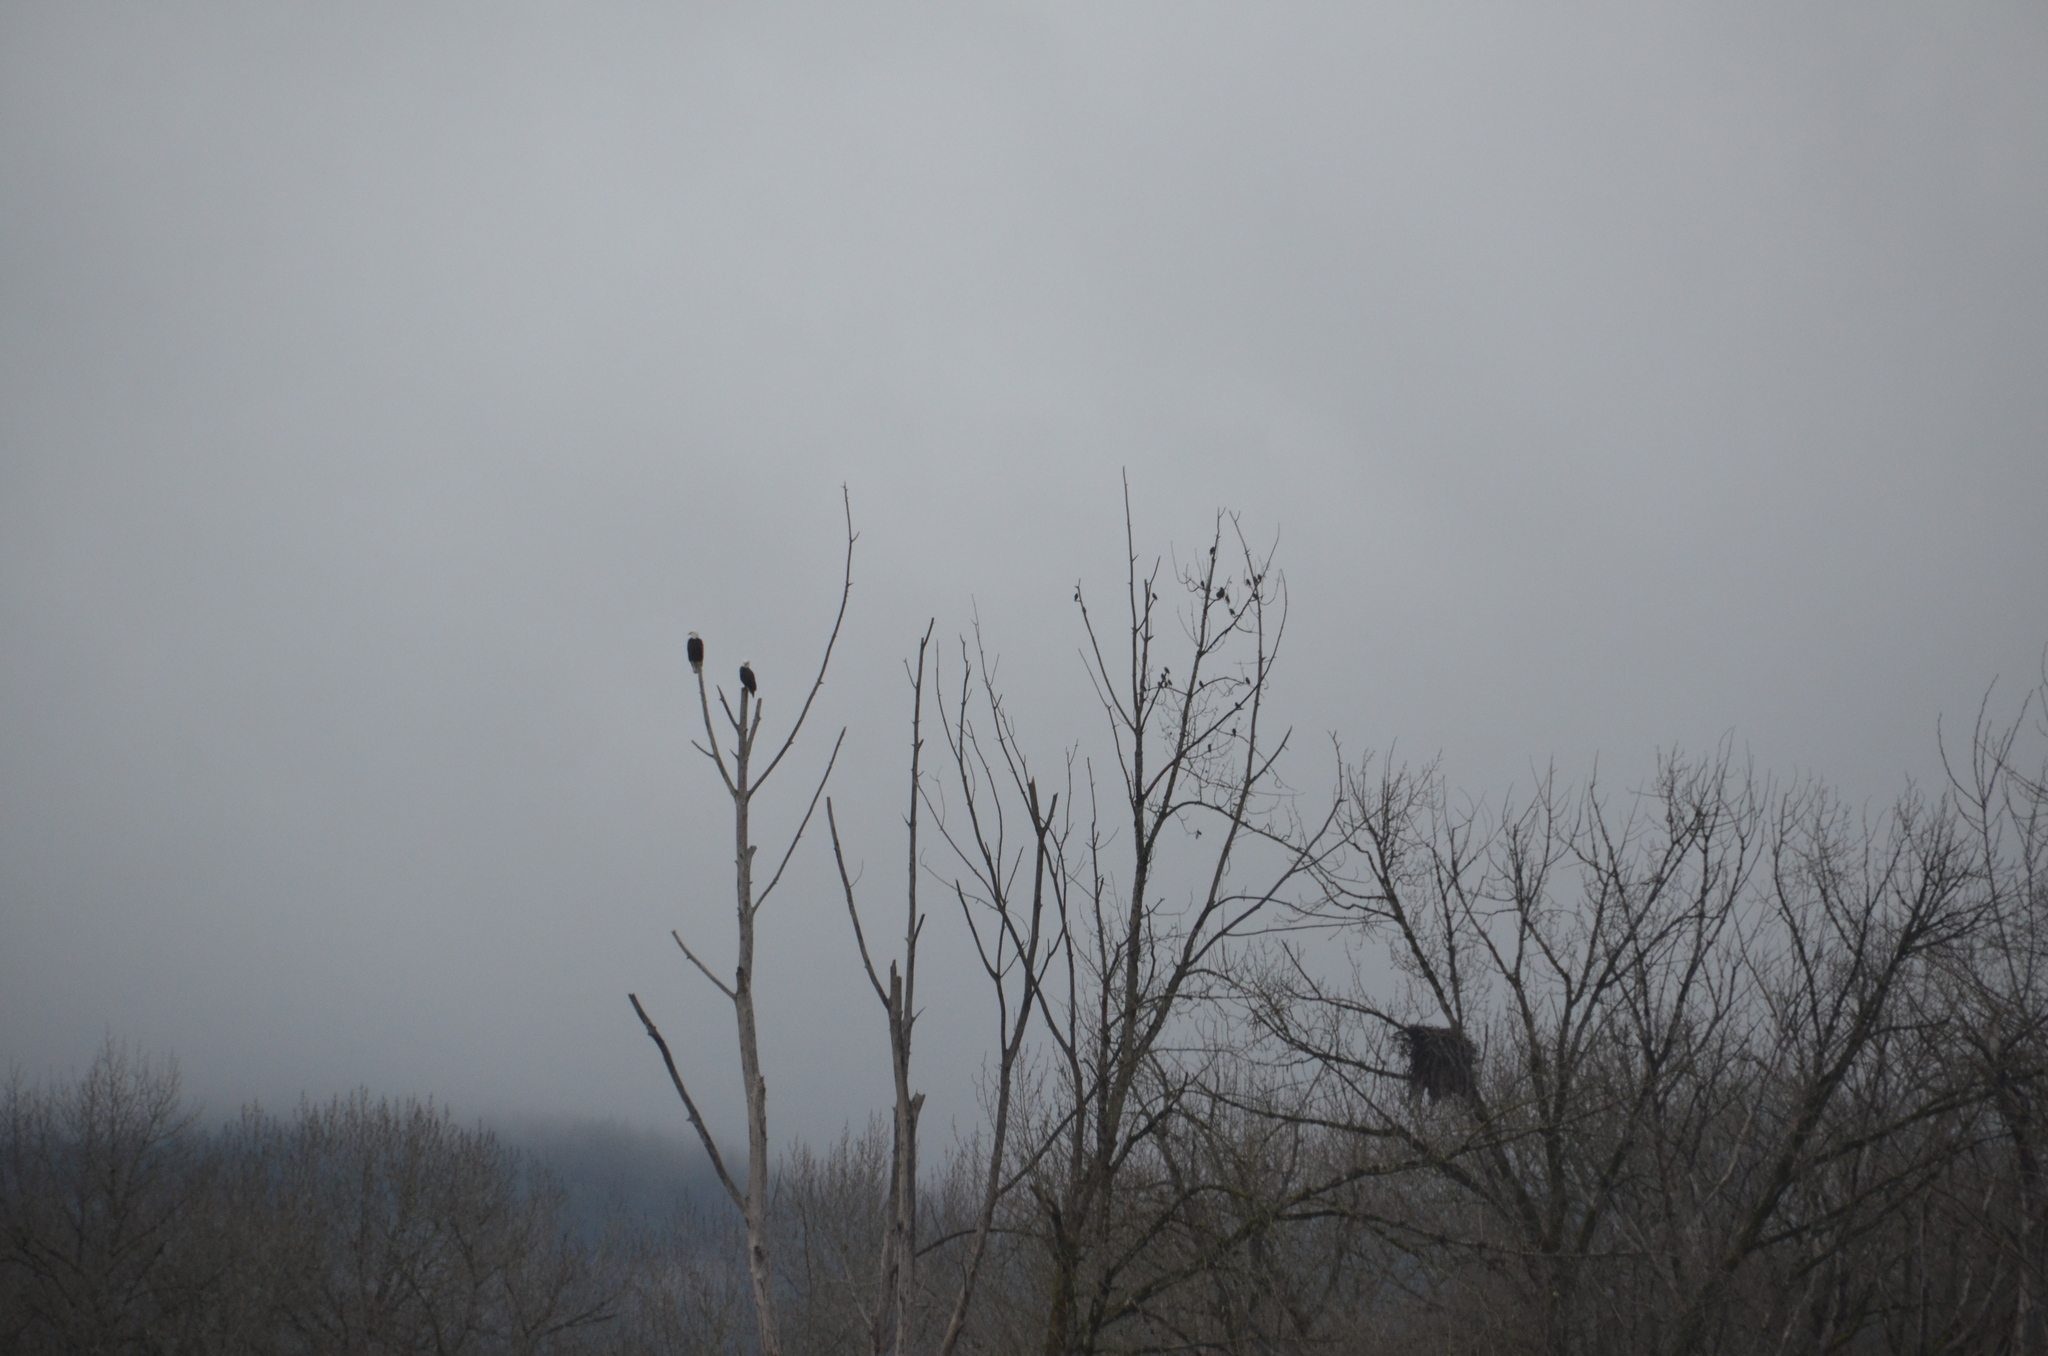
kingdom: Animalia
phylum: Chordata
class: Aves
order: Accipitriformes
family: Accipitridae
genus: Haliaeetus
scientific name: Haliaeetus leucocephalus
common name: Bald eagle
